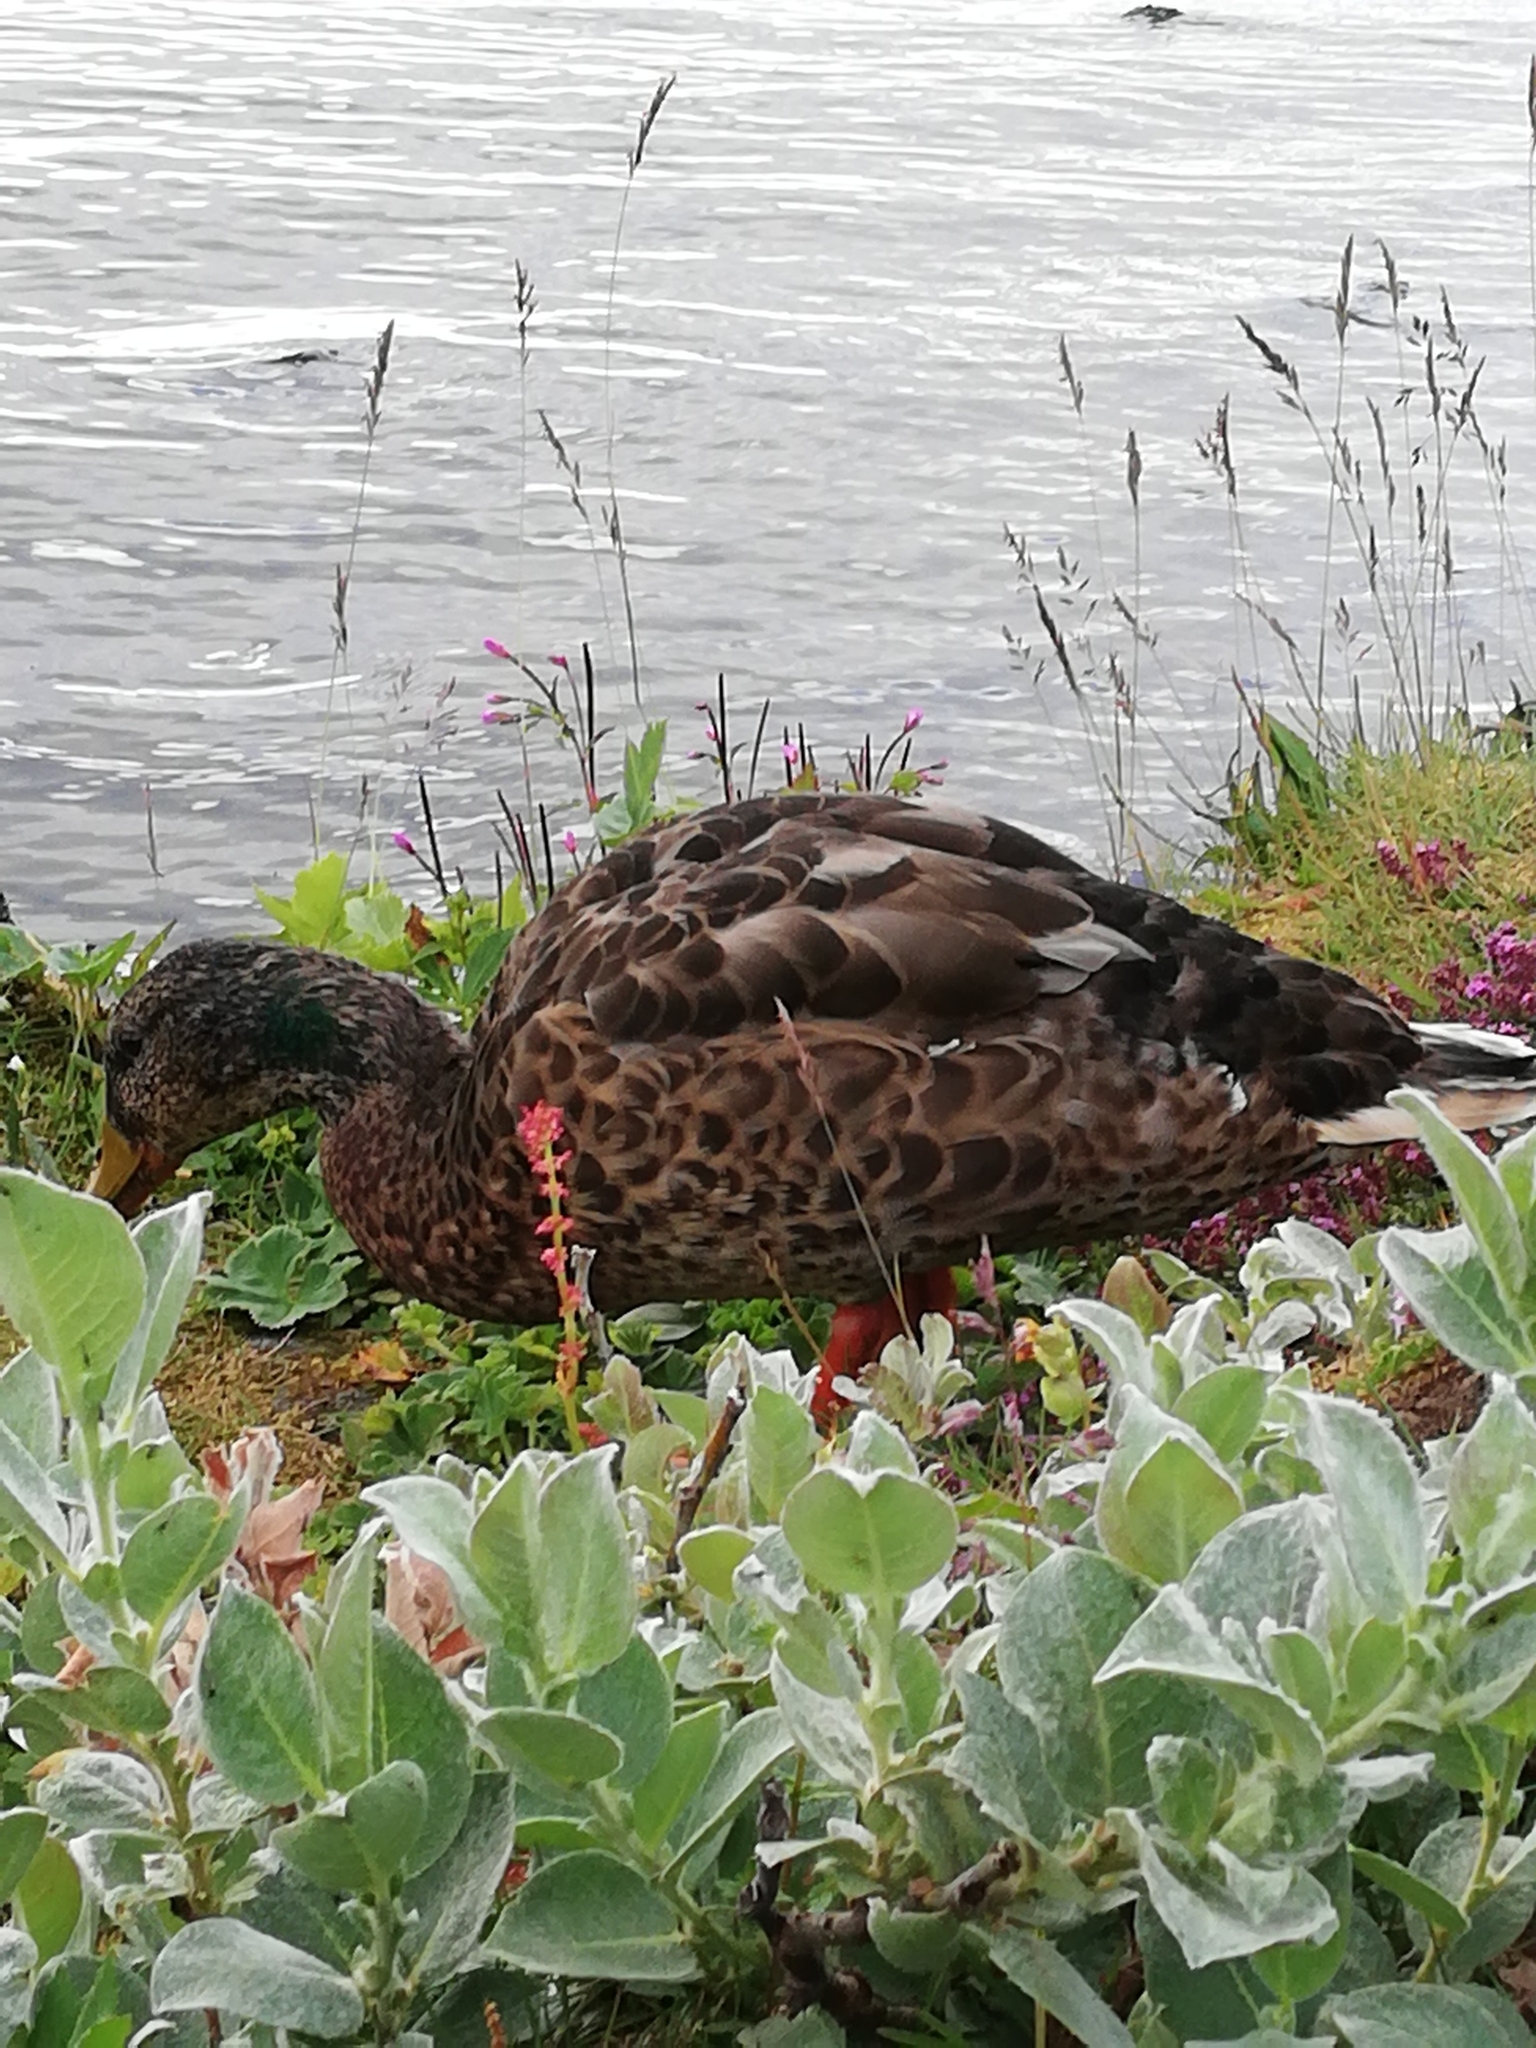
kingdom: Animalia
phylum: Chordata
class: Aves
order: Anseriformes
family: Anatidae
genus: Anas
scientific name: Anas platyrhynchos
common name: Mallard
